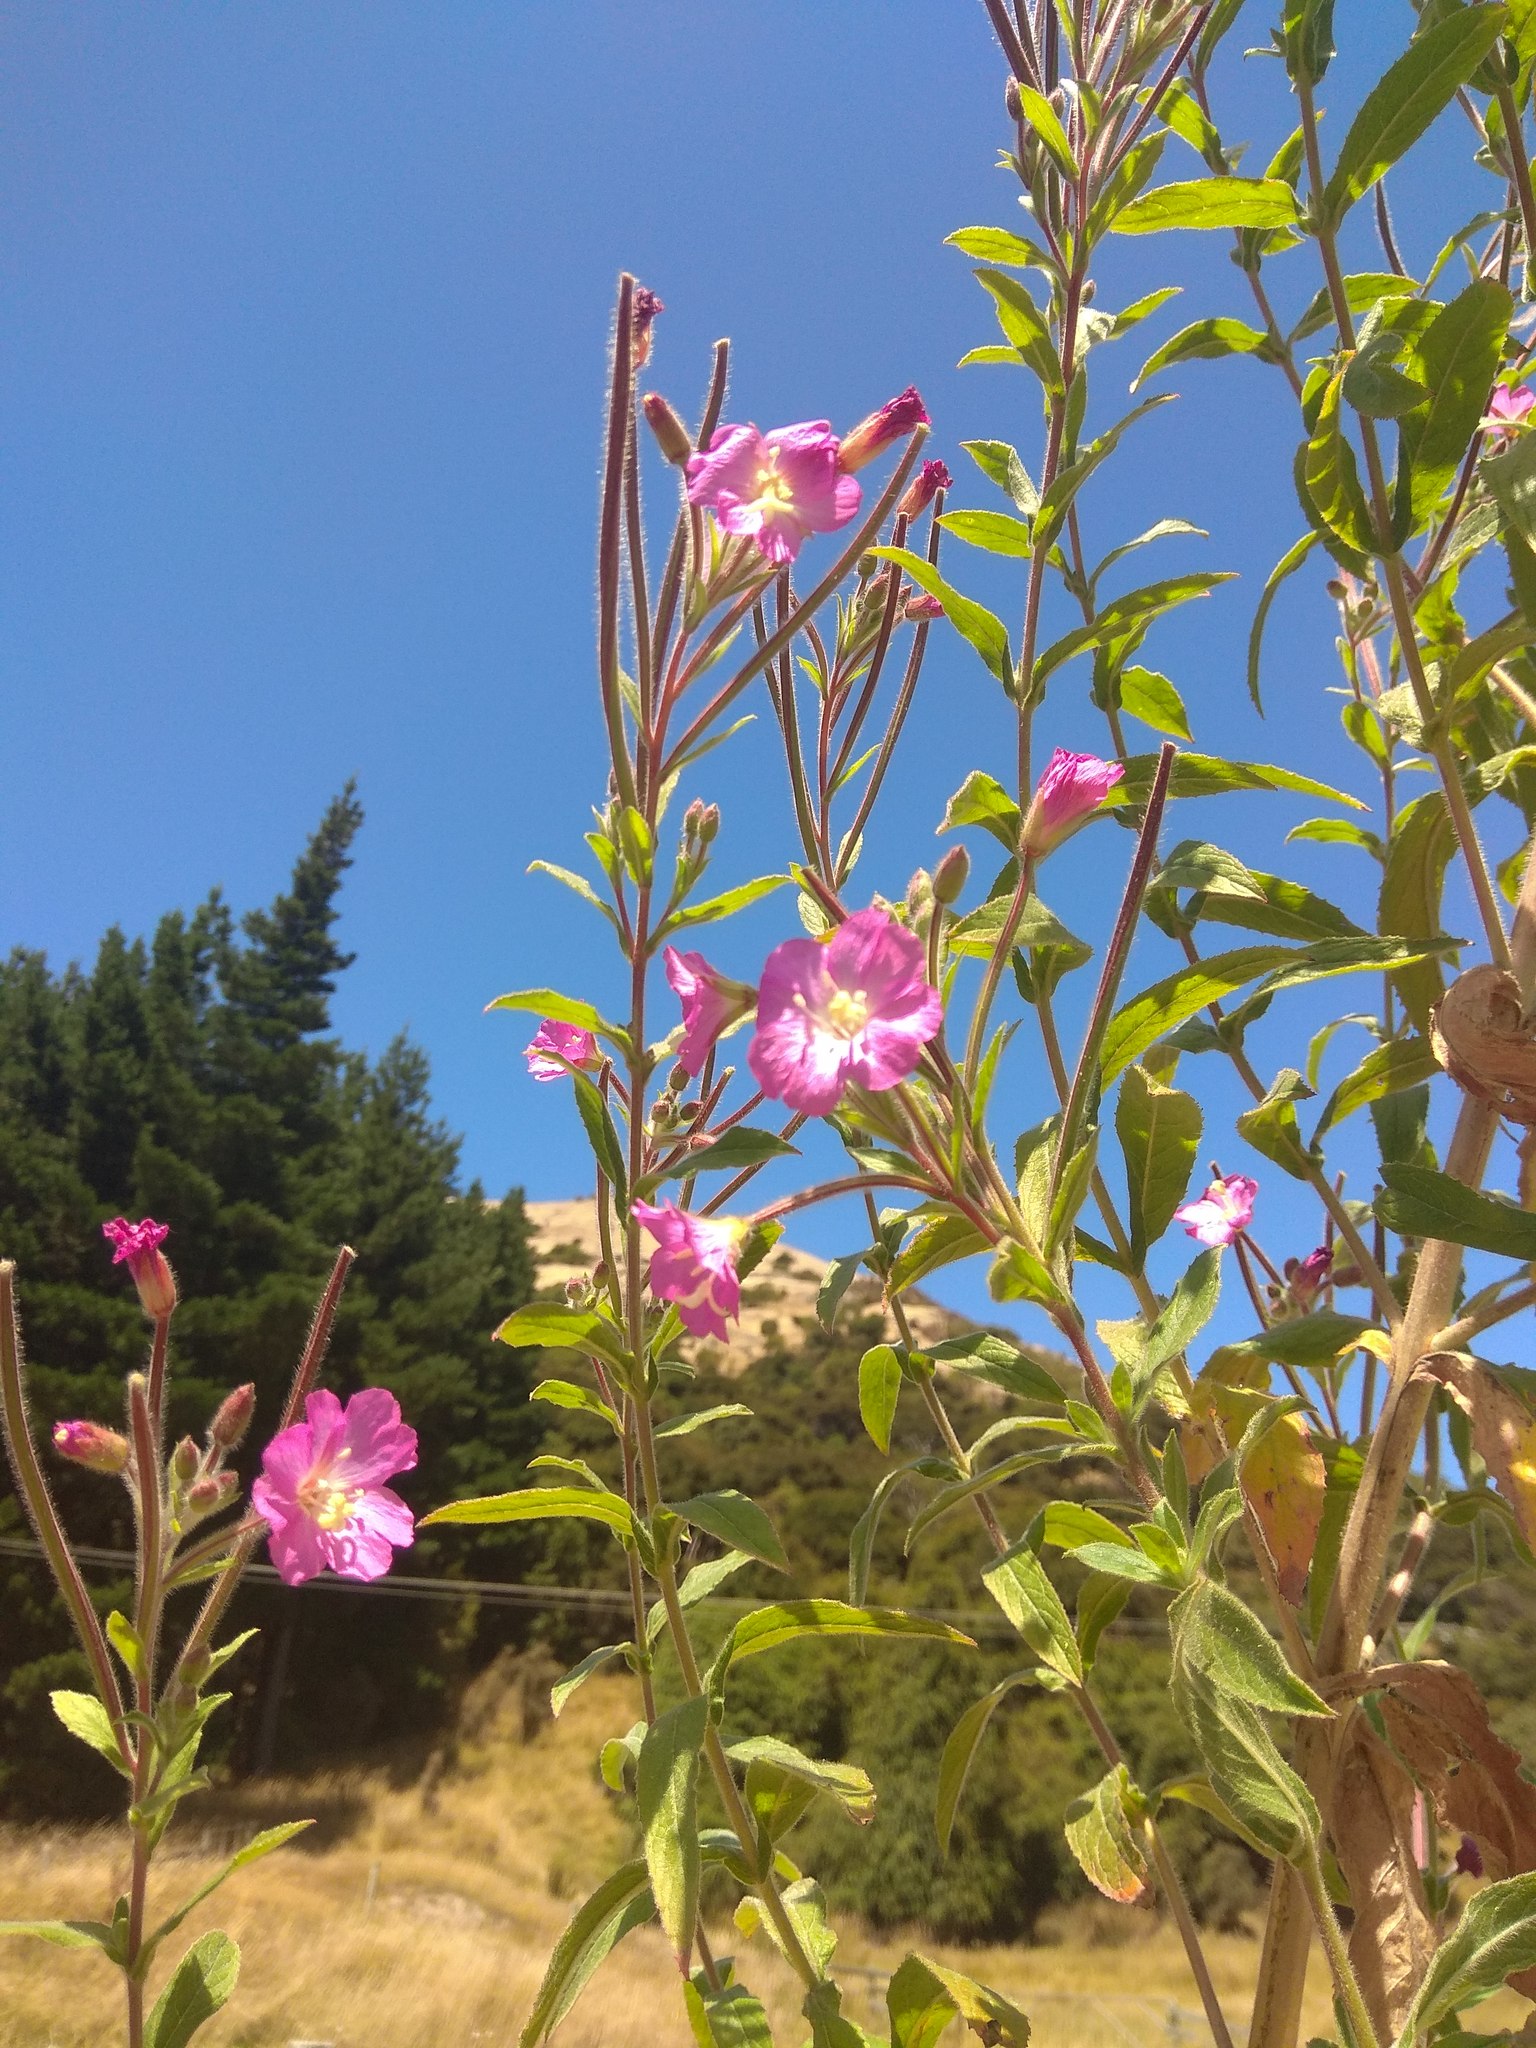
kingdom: Plantae
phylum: Tracheophyta
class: Magnoliopsida
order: Myrtales
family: Onagraceae
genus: Epilobium
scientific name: Epilobium hirsutum
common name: Great willowherb
